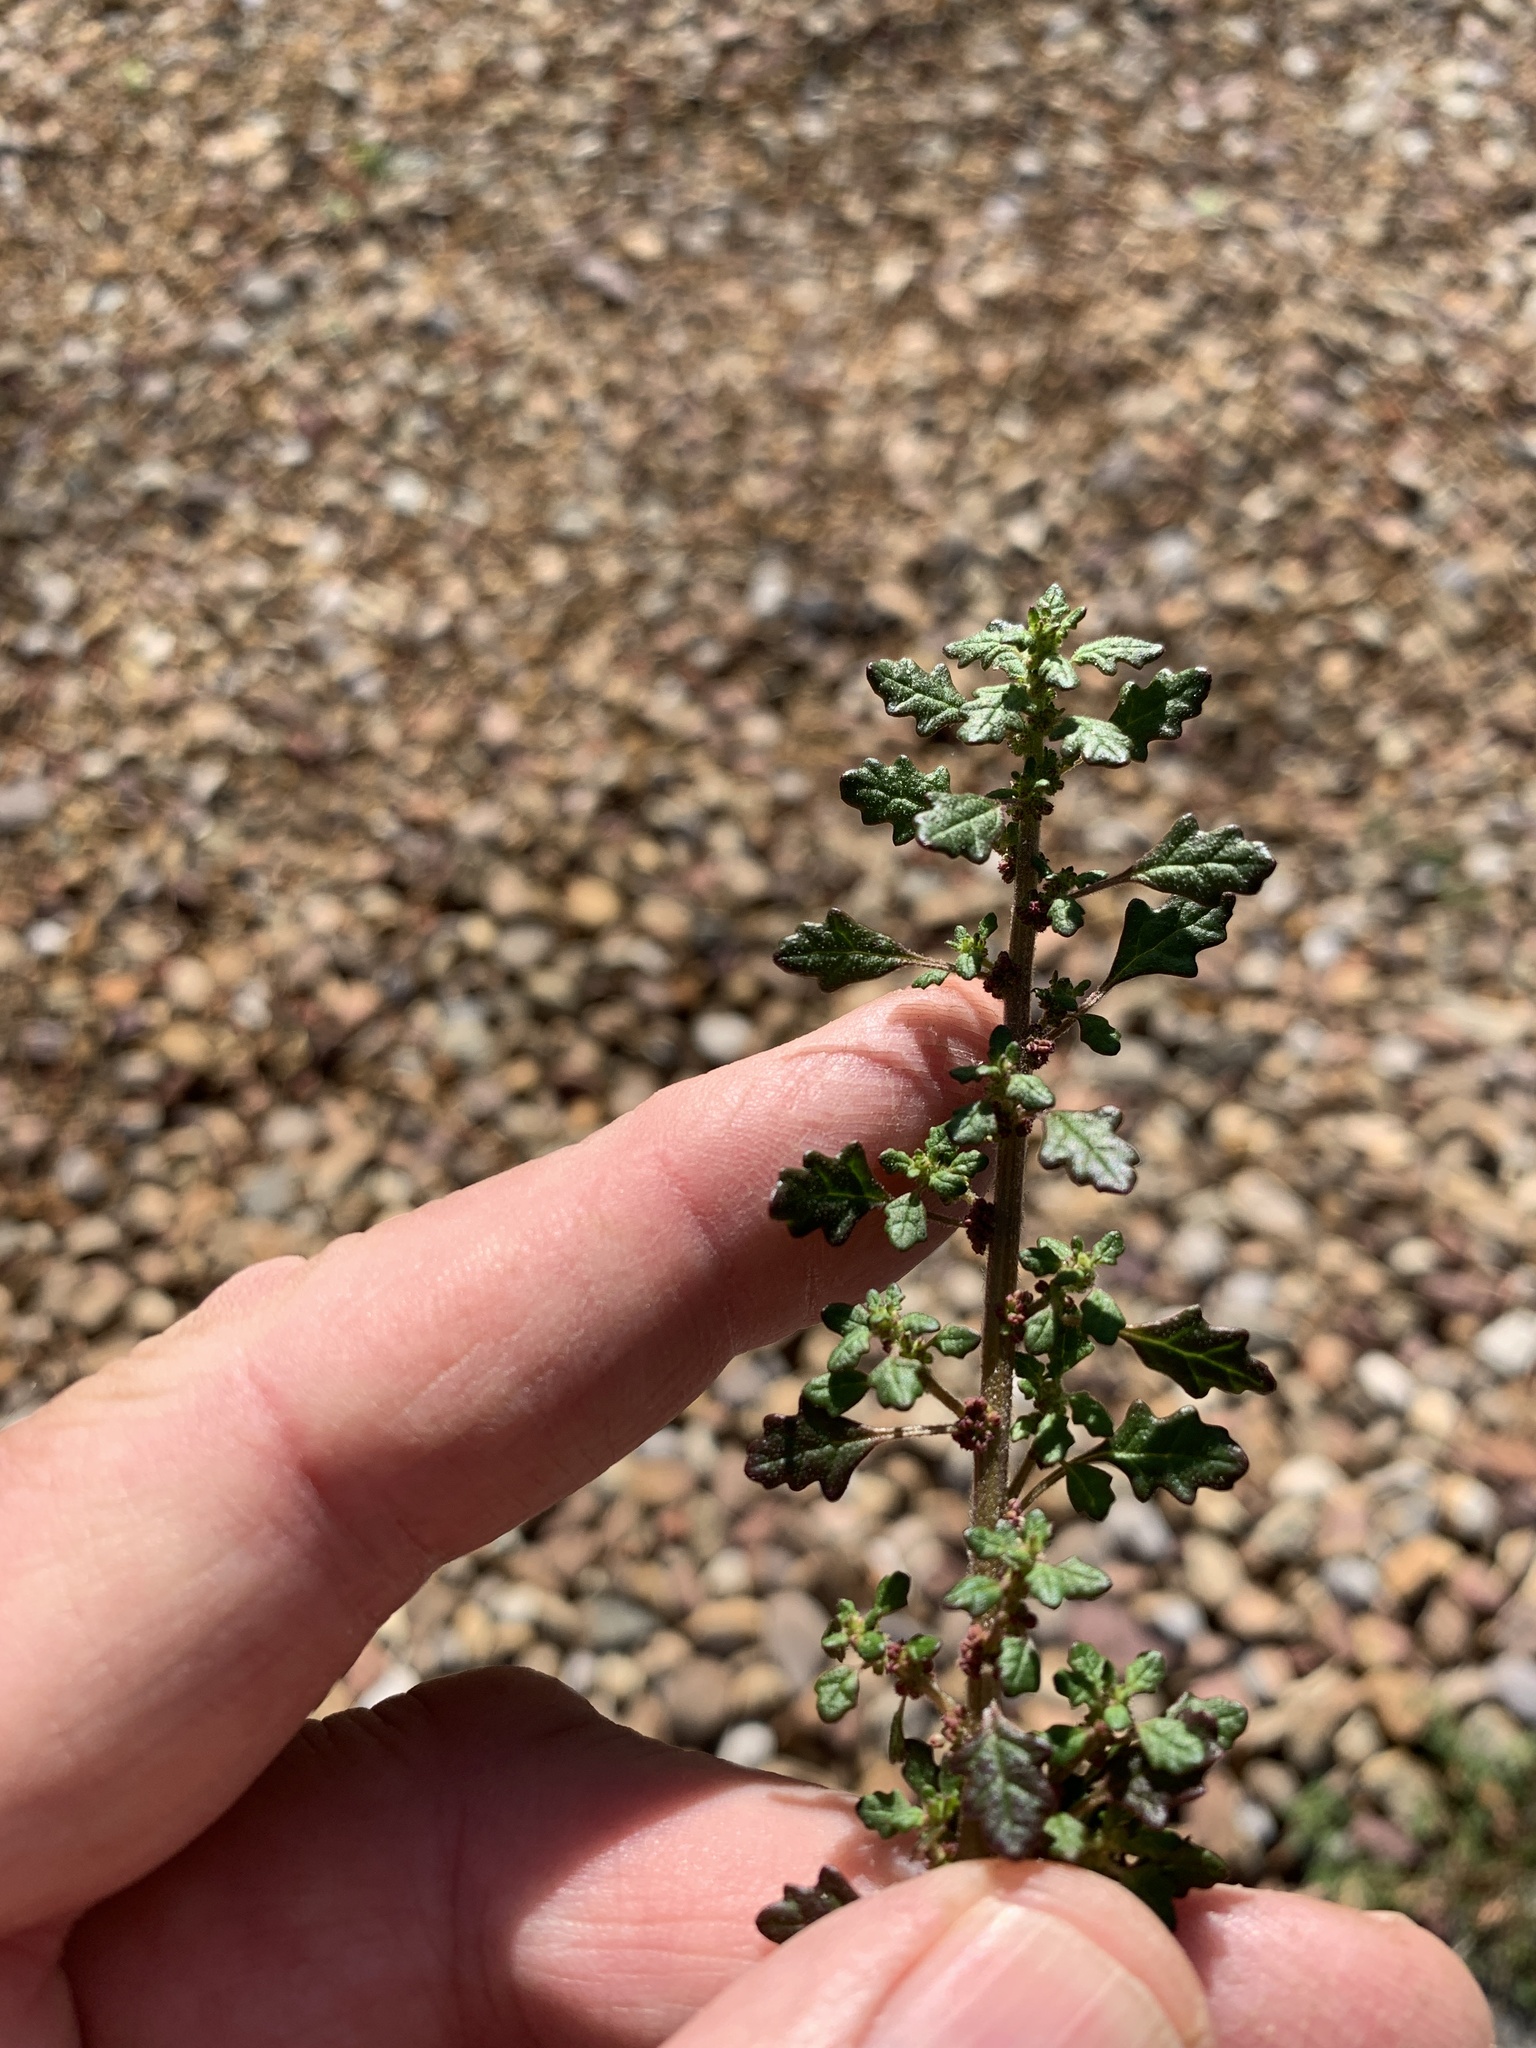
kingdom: Plantae
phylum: Tracheophyta
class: Magnoliopsida
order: Caryophyllales
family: Amaranthaceae
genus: Dysphania
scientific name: Dysphania pumilio
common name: Clammy goosefoot
